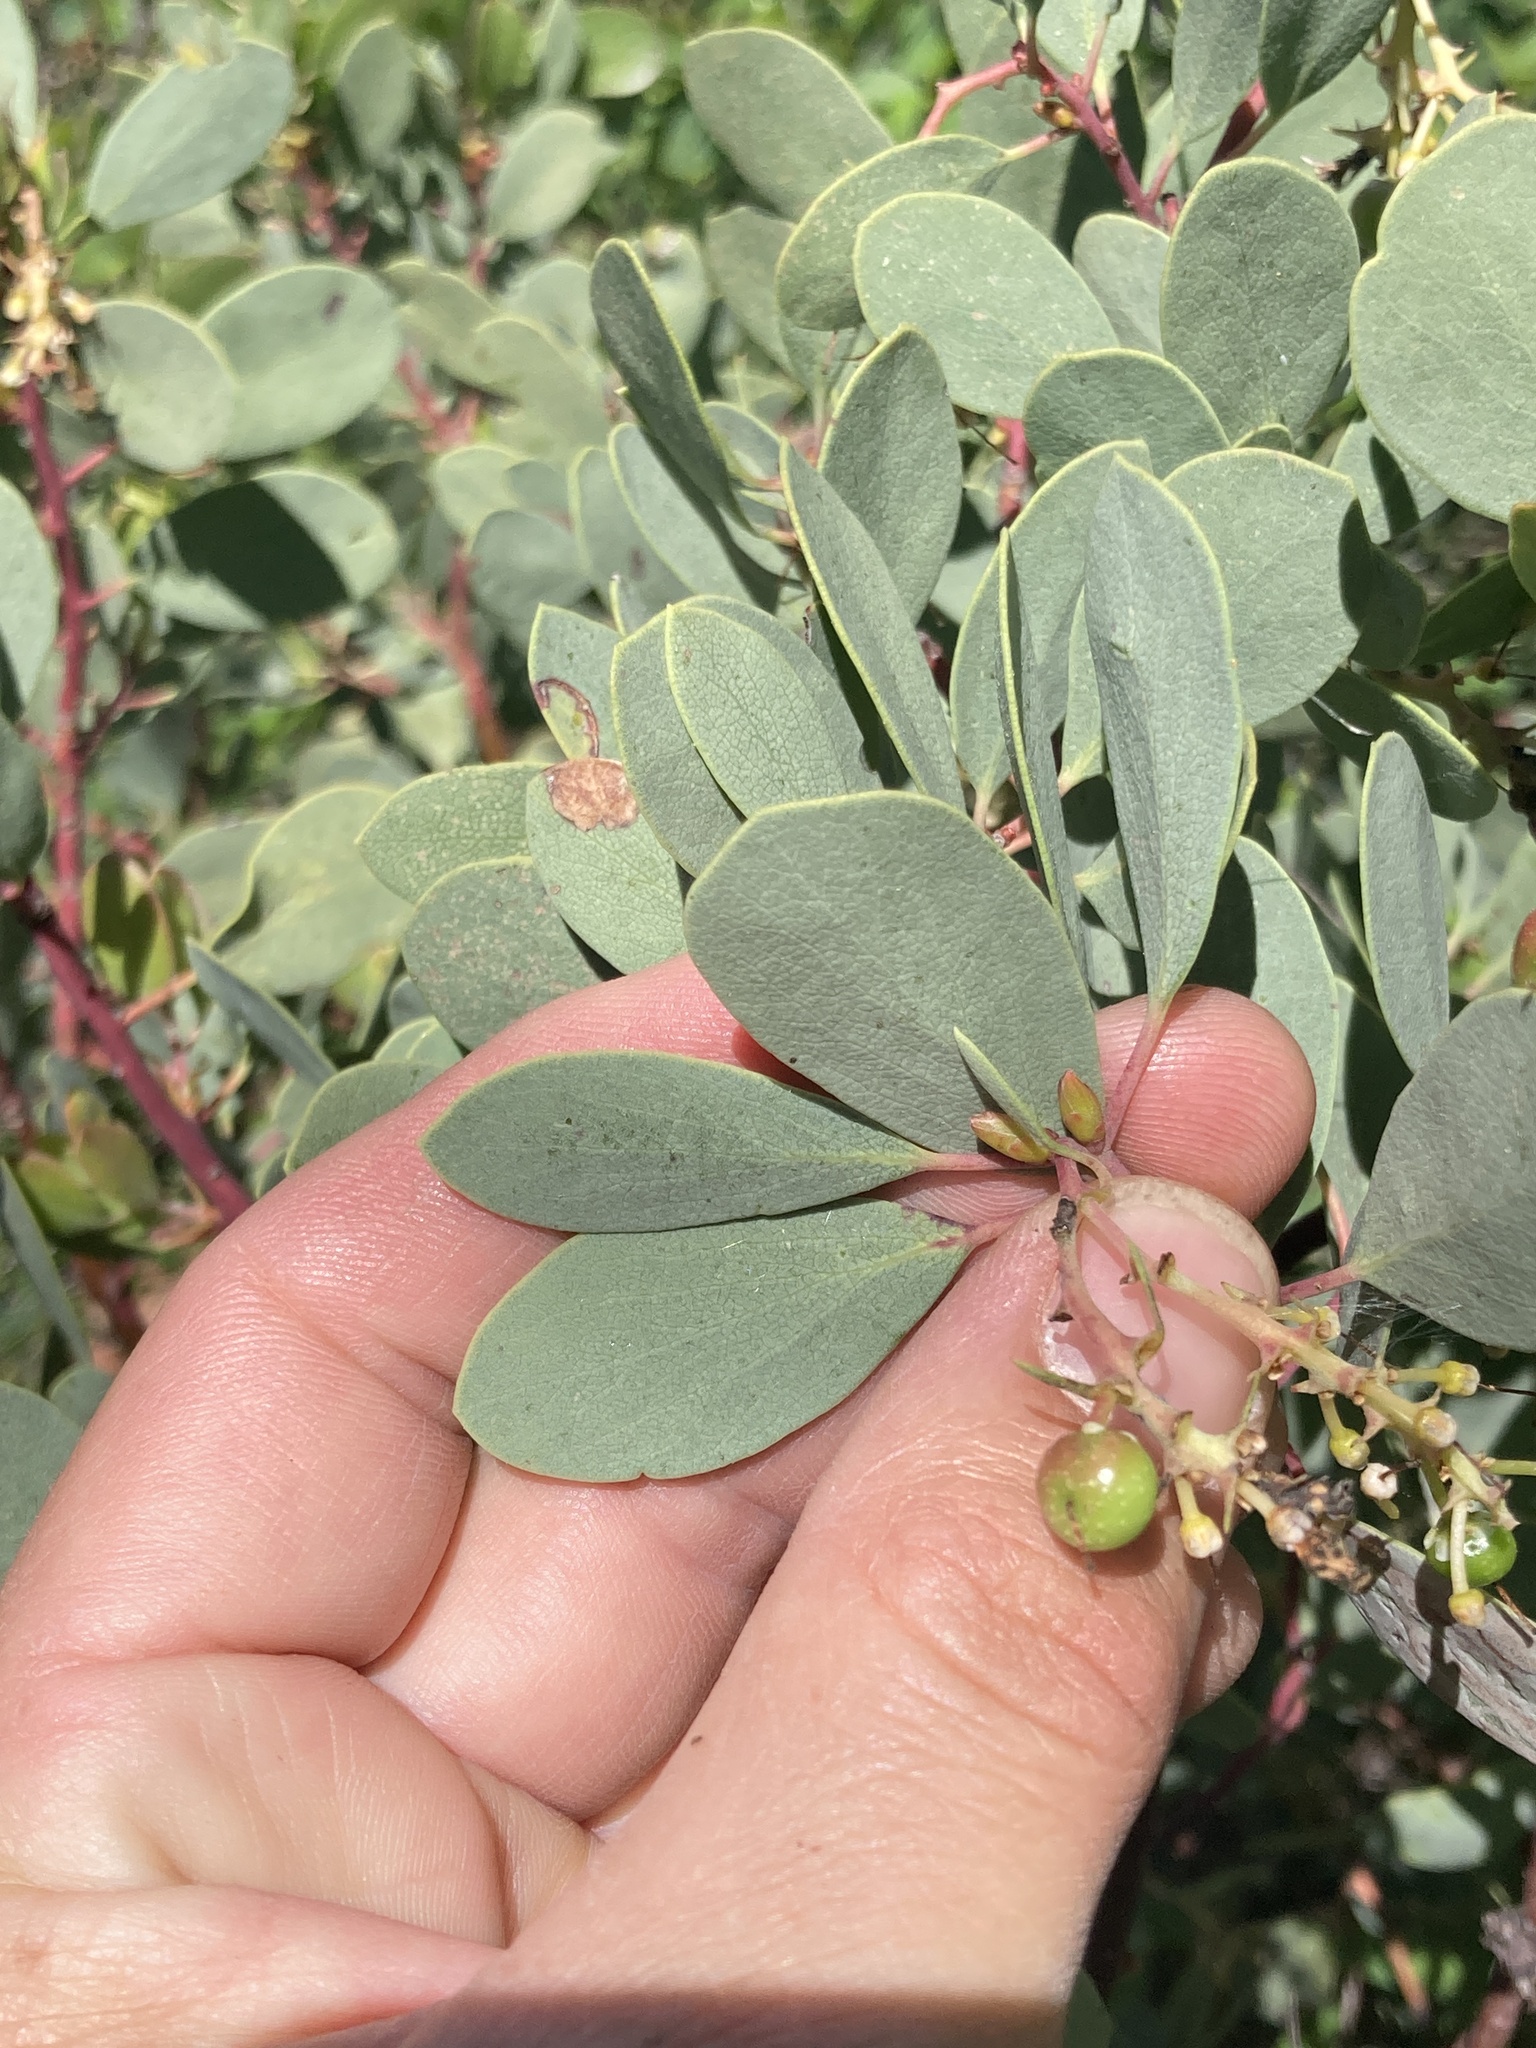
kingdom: Plantae
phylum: Tracheophyta
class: Magnoliopsida
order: Ericales
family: Ericaceae
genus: Arctostaphylos
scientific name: Arctostaphylos mewukka
